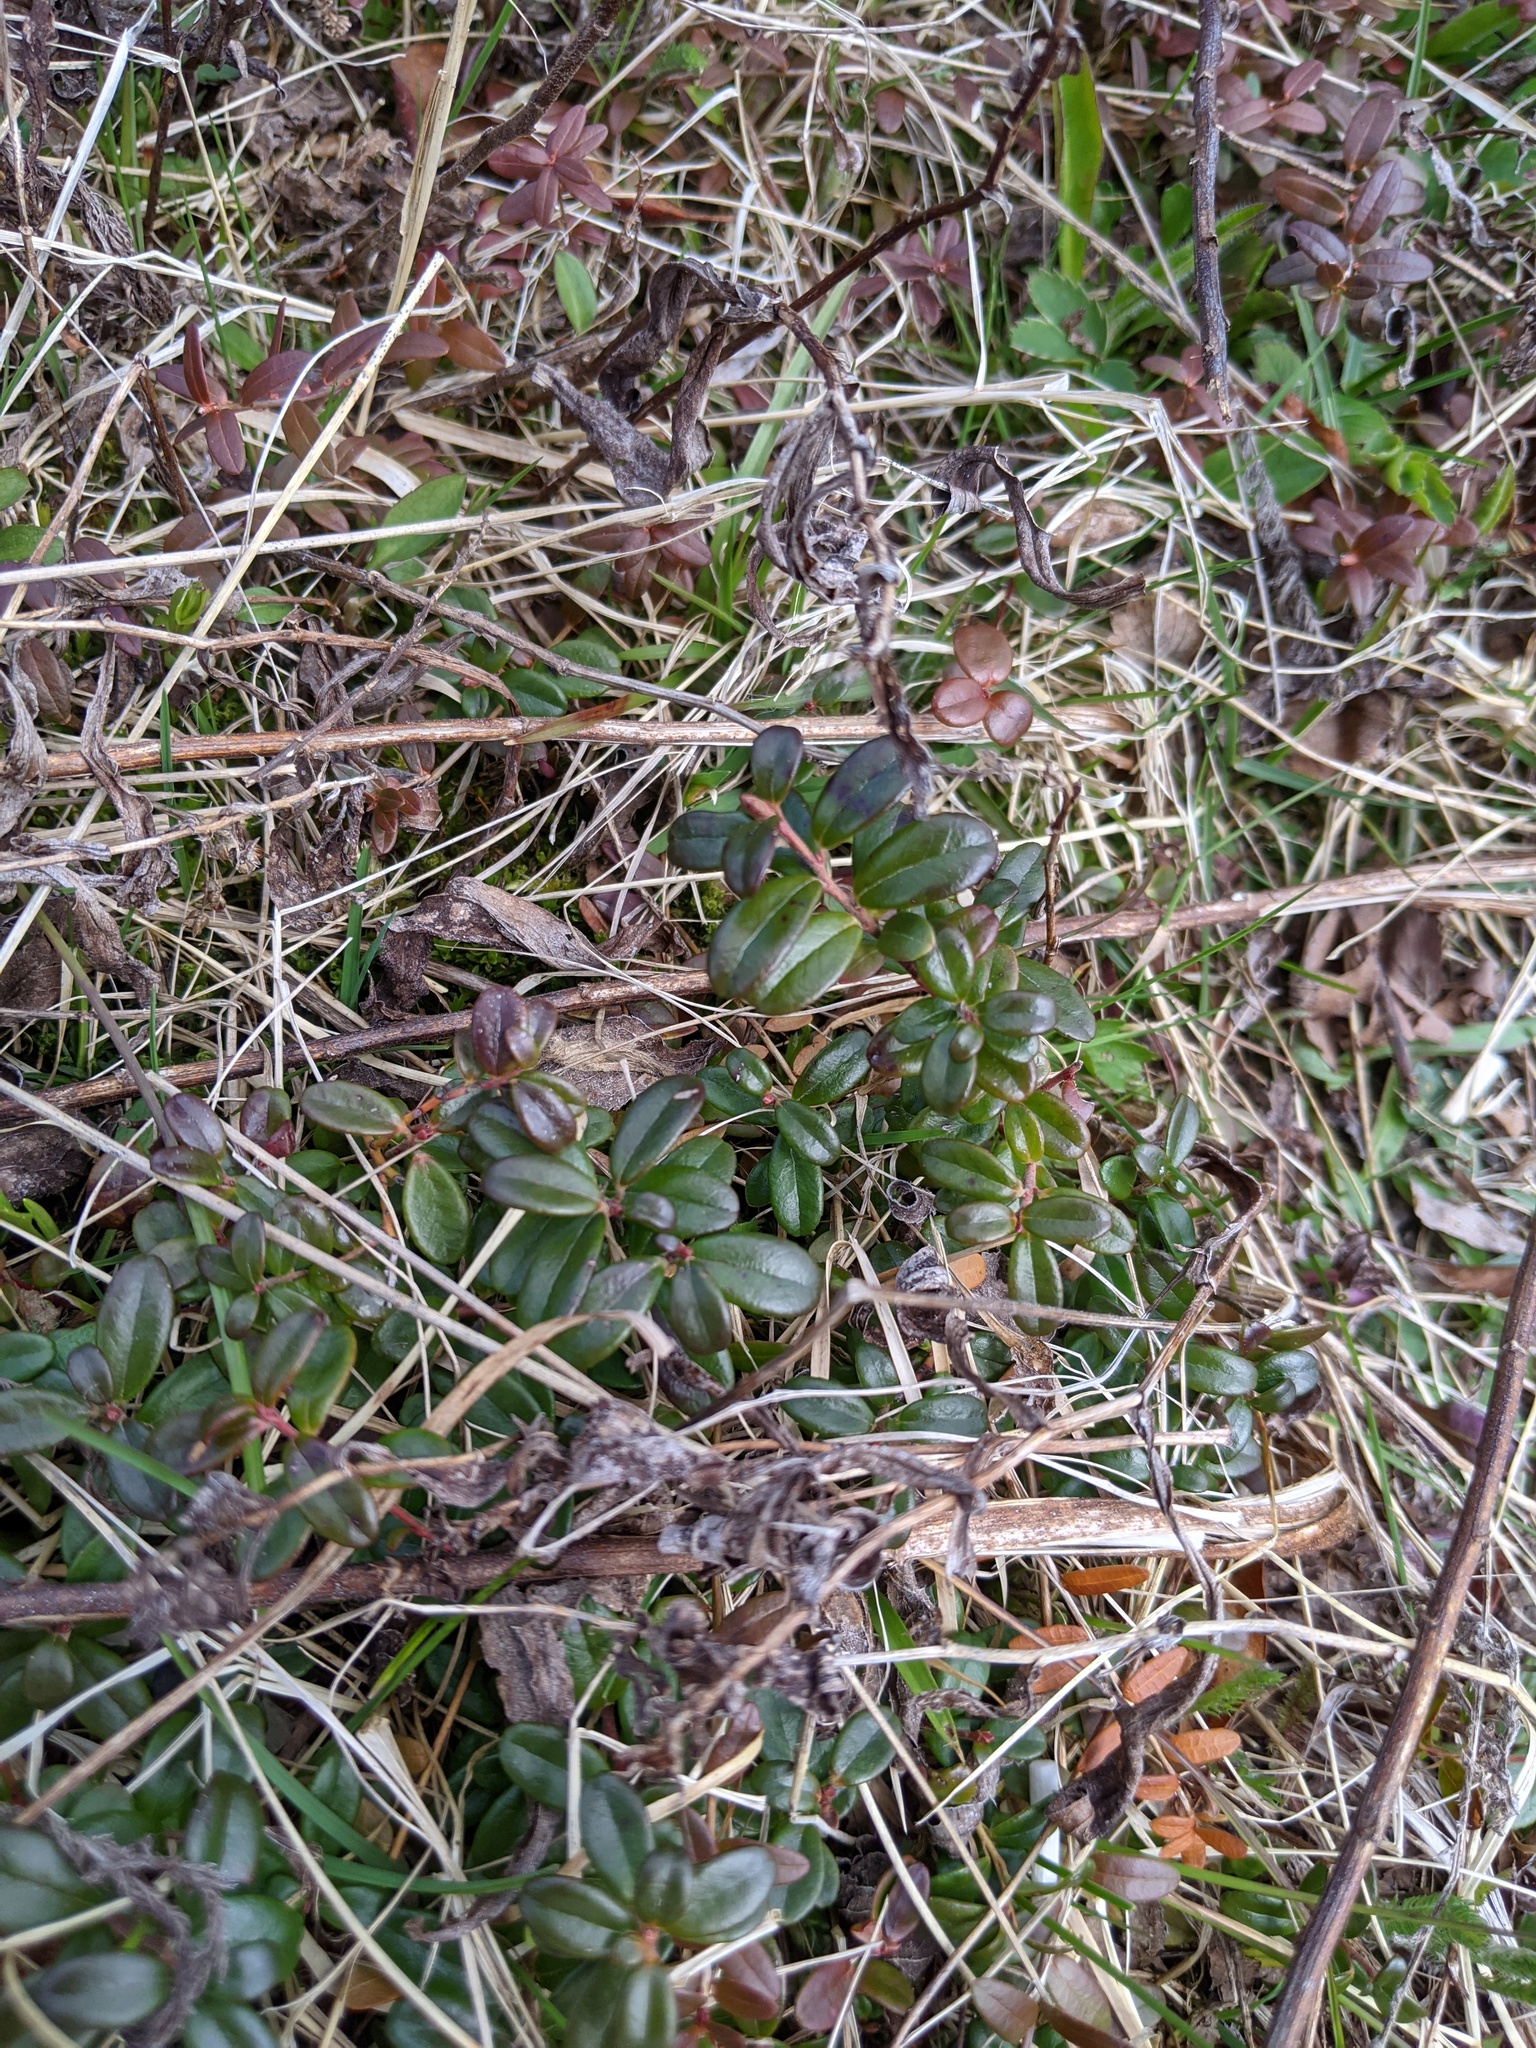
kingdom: Plantae
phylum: Tracheophyta
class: Magnoliopsida
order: Ericales
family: Ericaceae
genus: Vaccinium
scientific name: Vaccinium vitis-idaea
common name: Cowberry
